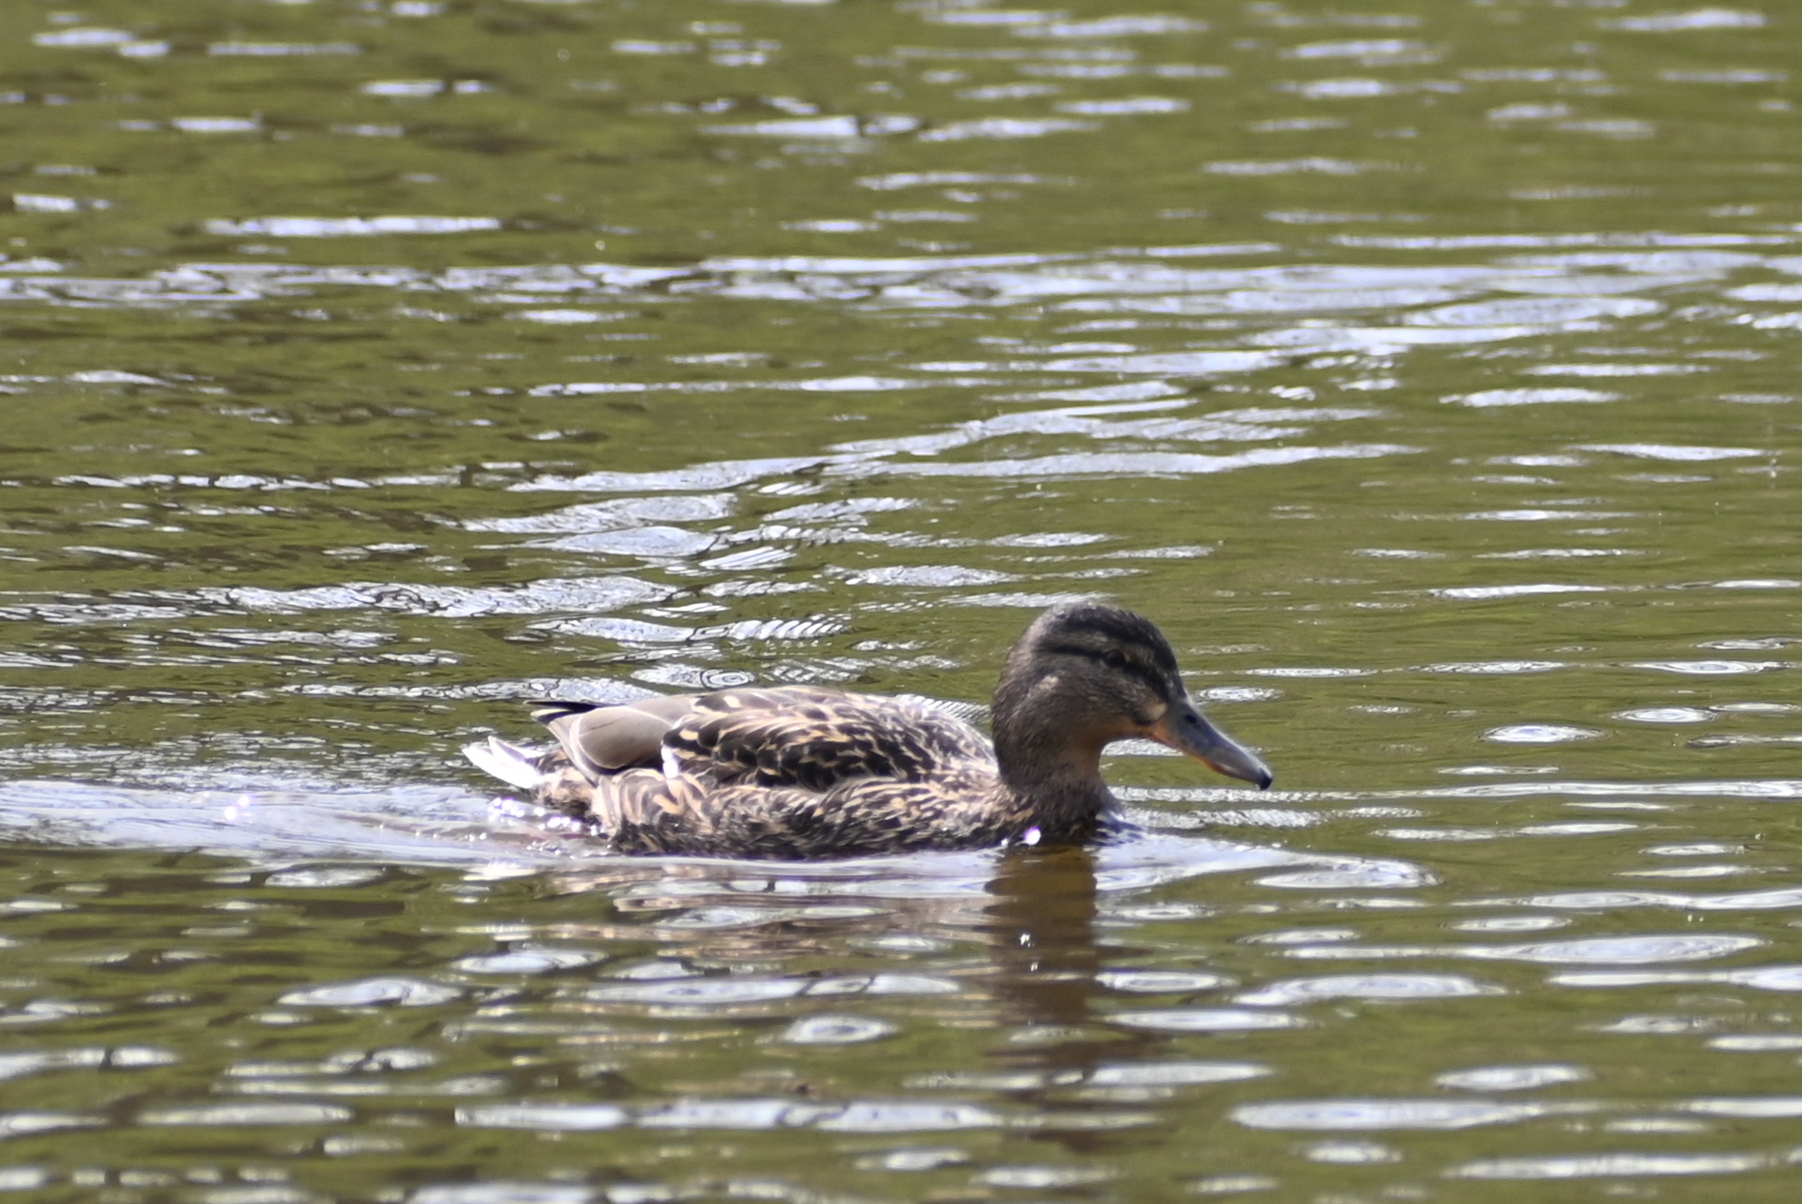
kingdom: Animalia
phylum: Chordata
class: Aves
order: Anseriformes
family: Anatidae
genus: Anas
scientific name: Anas platyrhynchos
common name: Mallard
